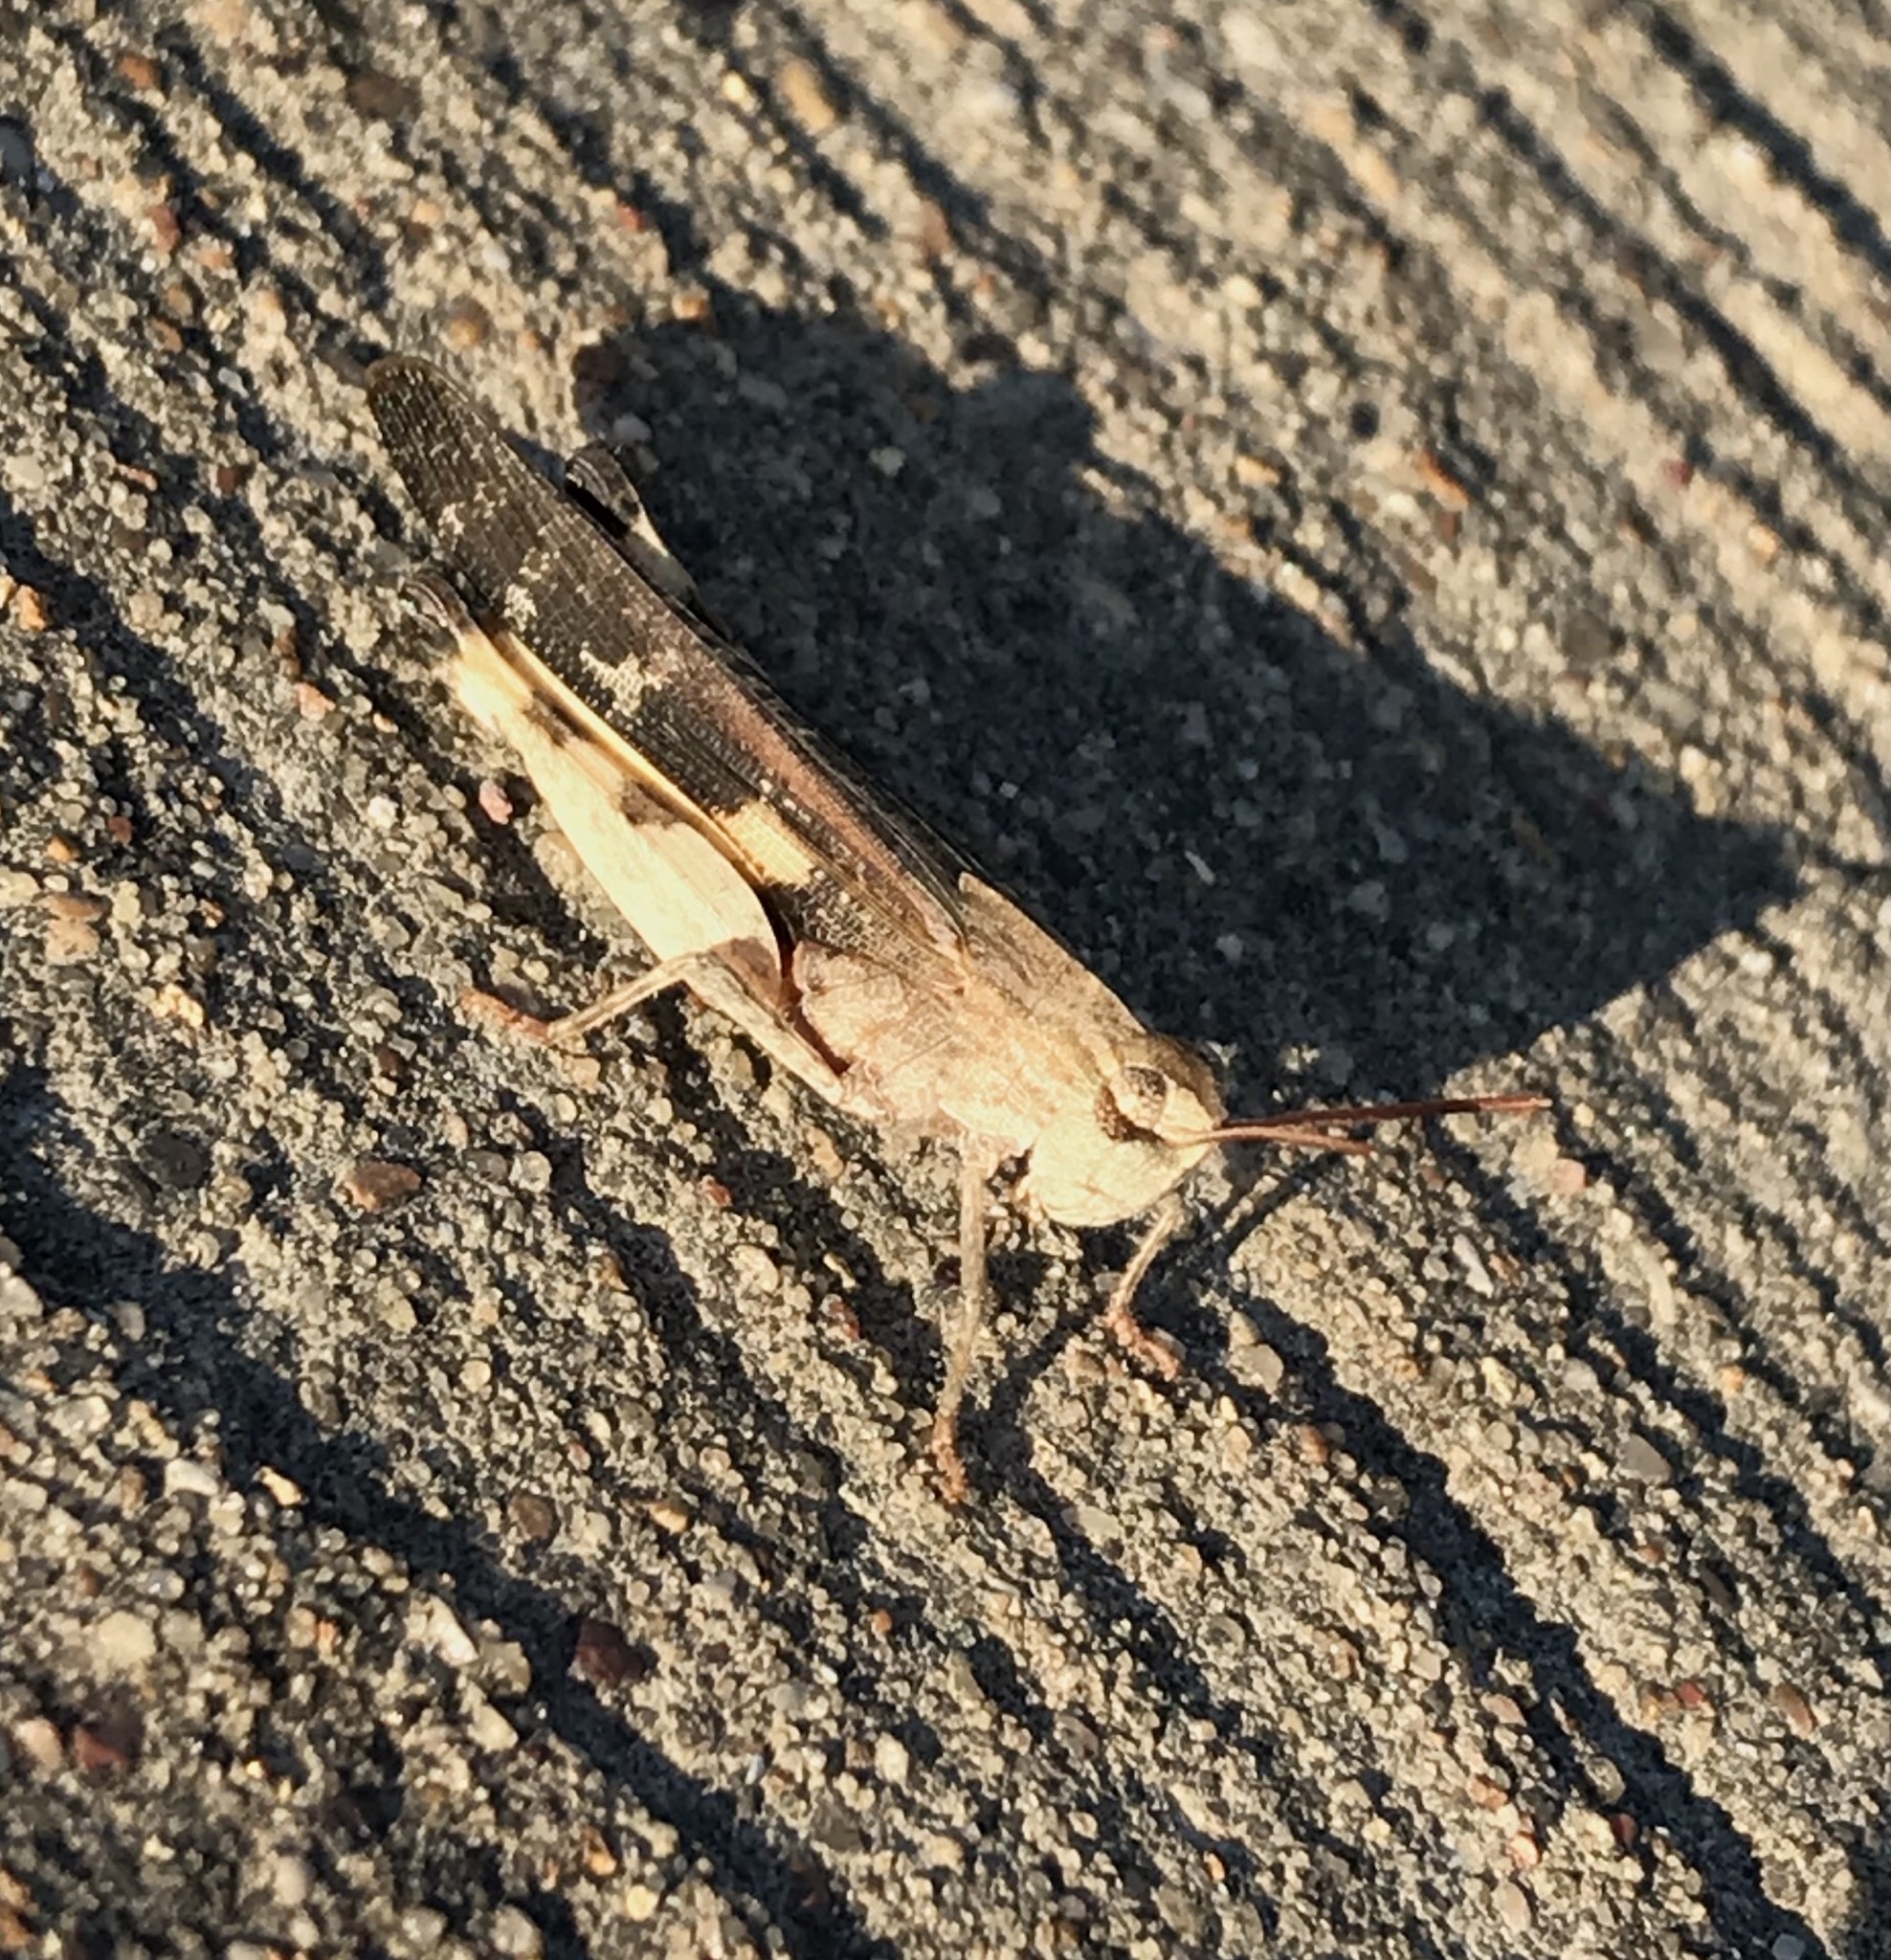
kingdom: Animalia
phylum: Arthropoda
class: Insecta
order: Orthoptera
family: Acrididae
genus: Chortophaga
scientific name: Chortophaga viridifasciata
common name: Green-striped grasshopper
